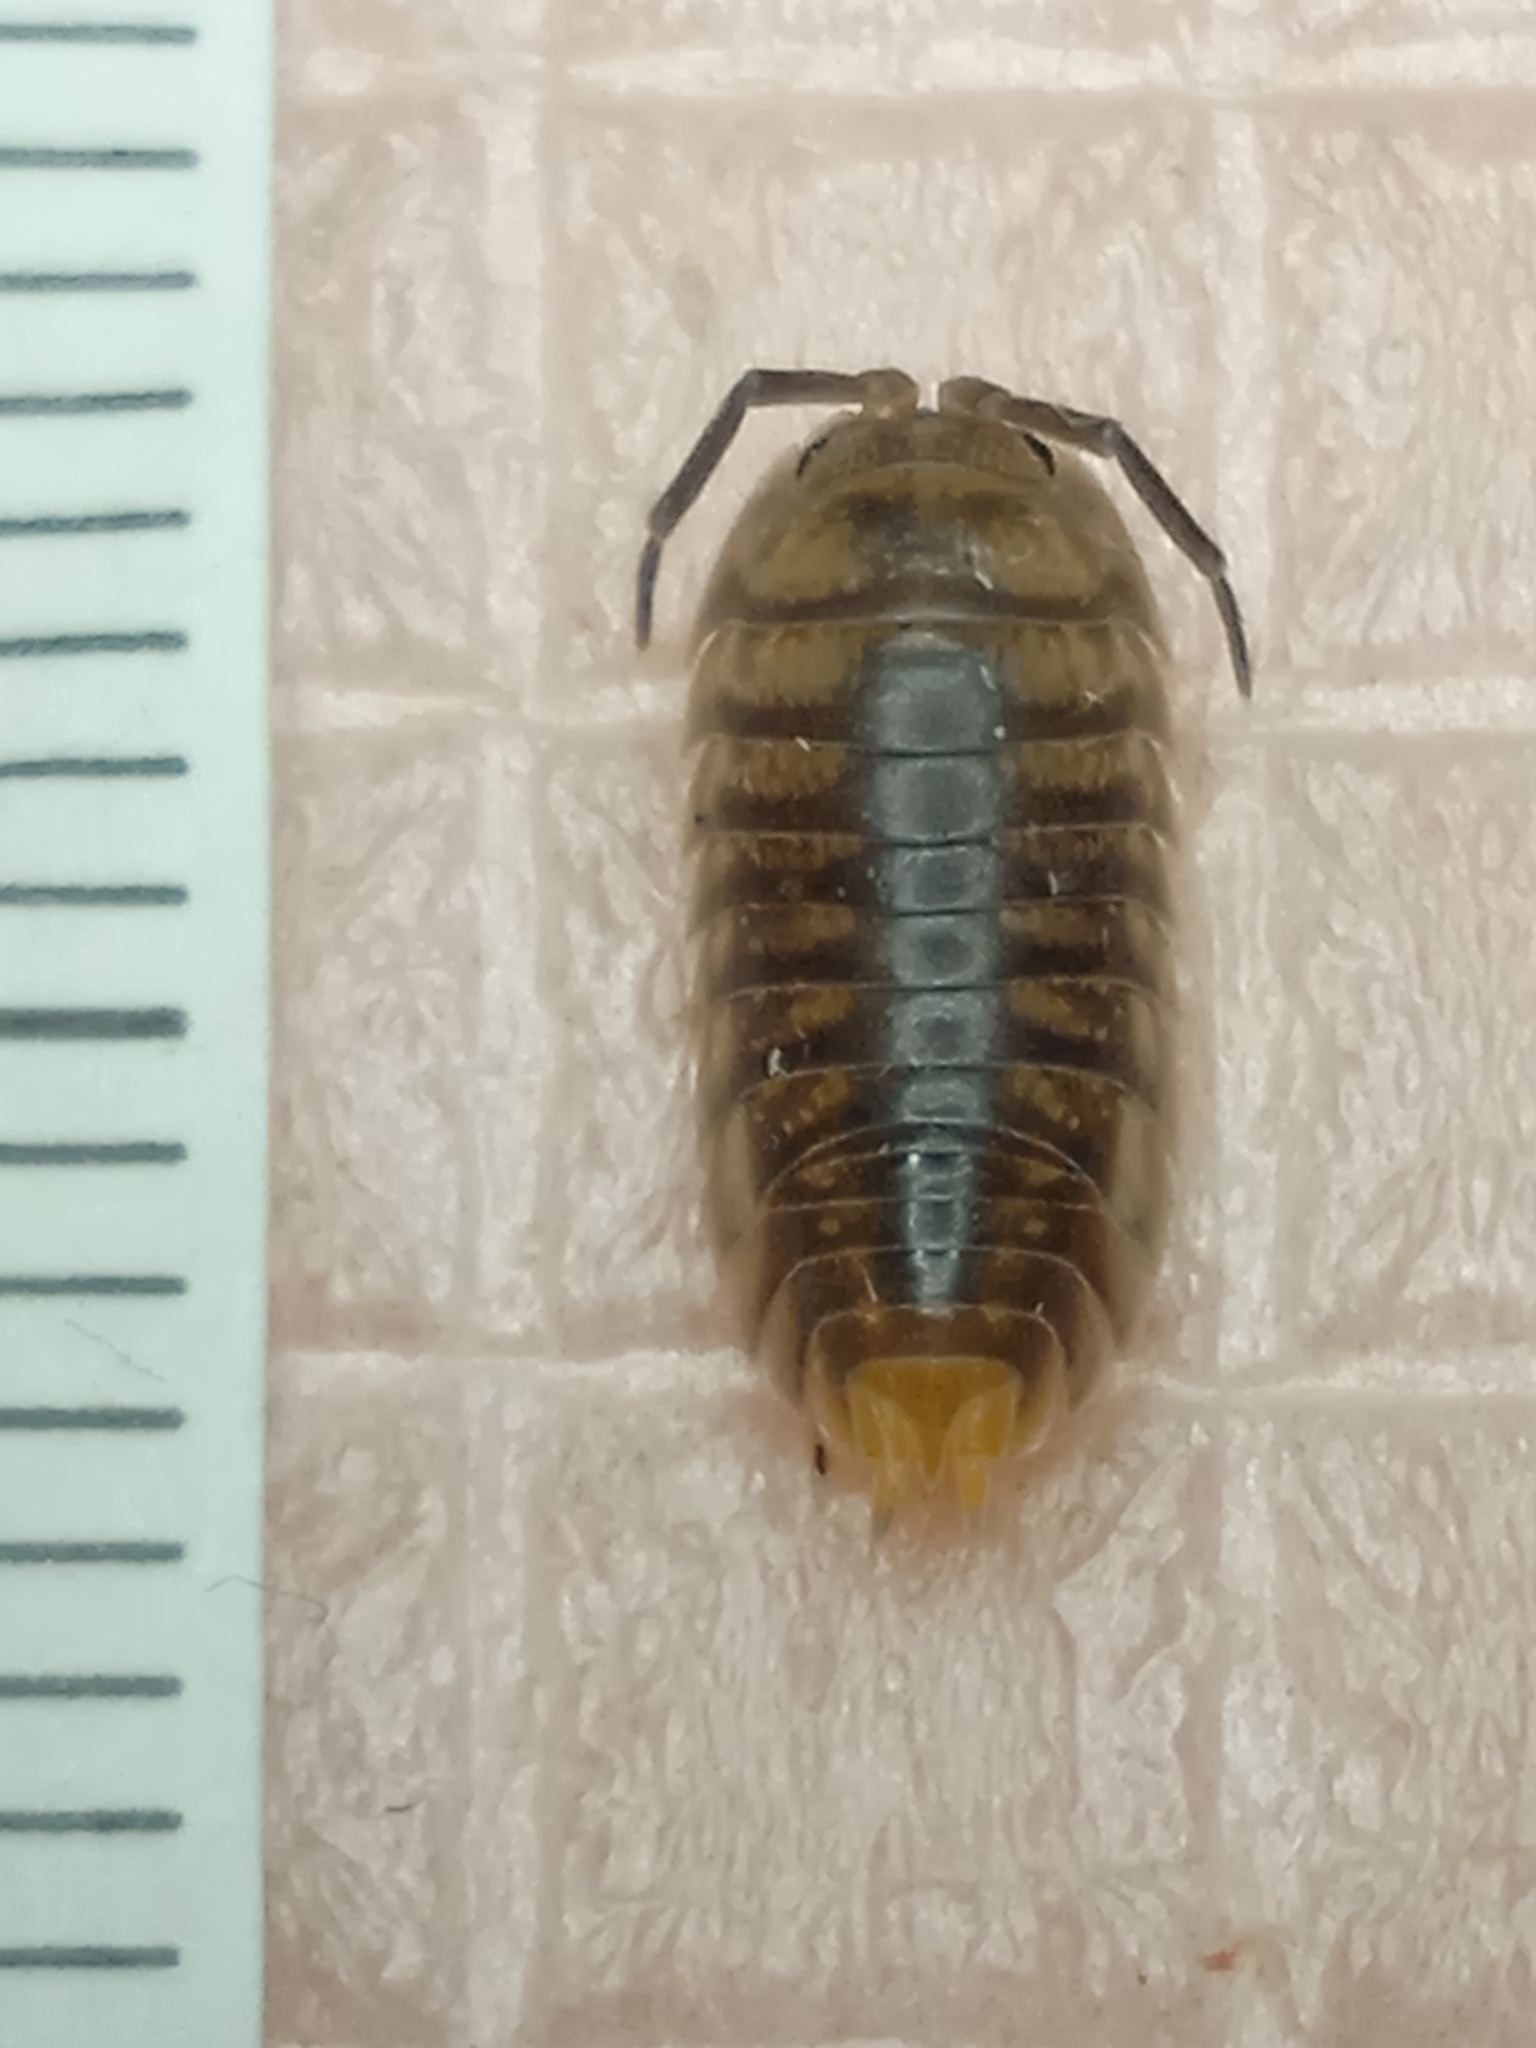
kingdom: Animalia
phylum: Arthropoda
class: Malacostraca
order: Isopoda
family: Cylisticidae
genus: Cylisticus
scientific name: Cylisticus convexus
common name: Curly woodlouse
